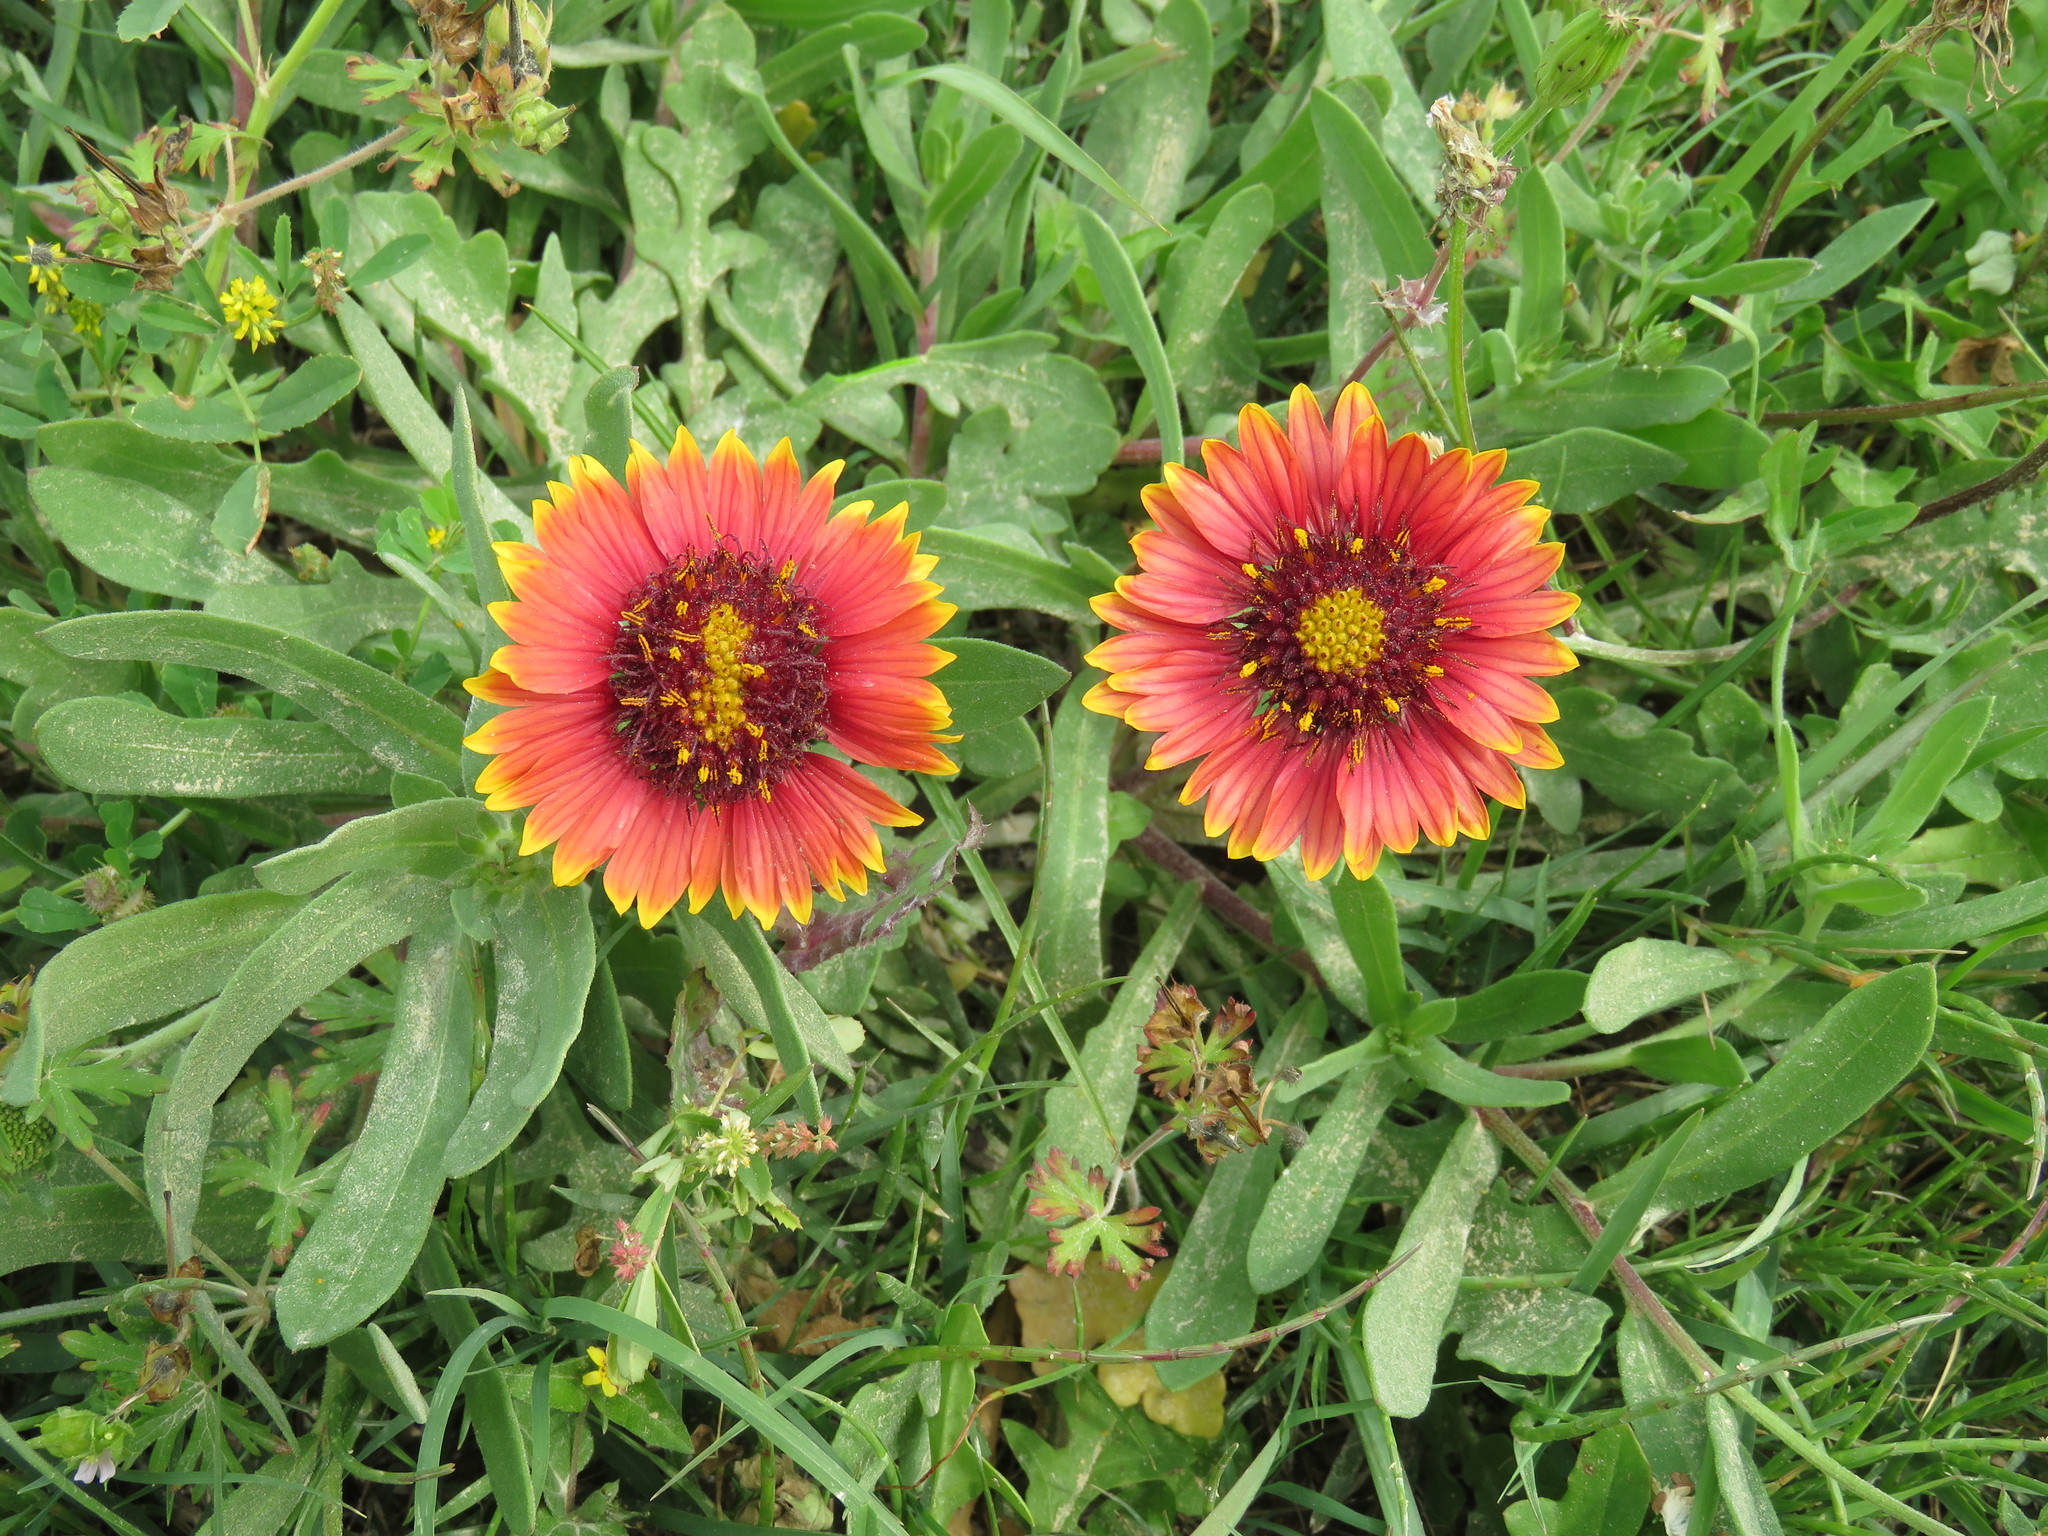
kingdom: Plantae
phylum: Tracheophyta
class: Magnoliopsida
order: Asterales
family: Asteraceae
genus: Gaillardia
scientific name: Gaillardia pulchella
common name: Firewheel
